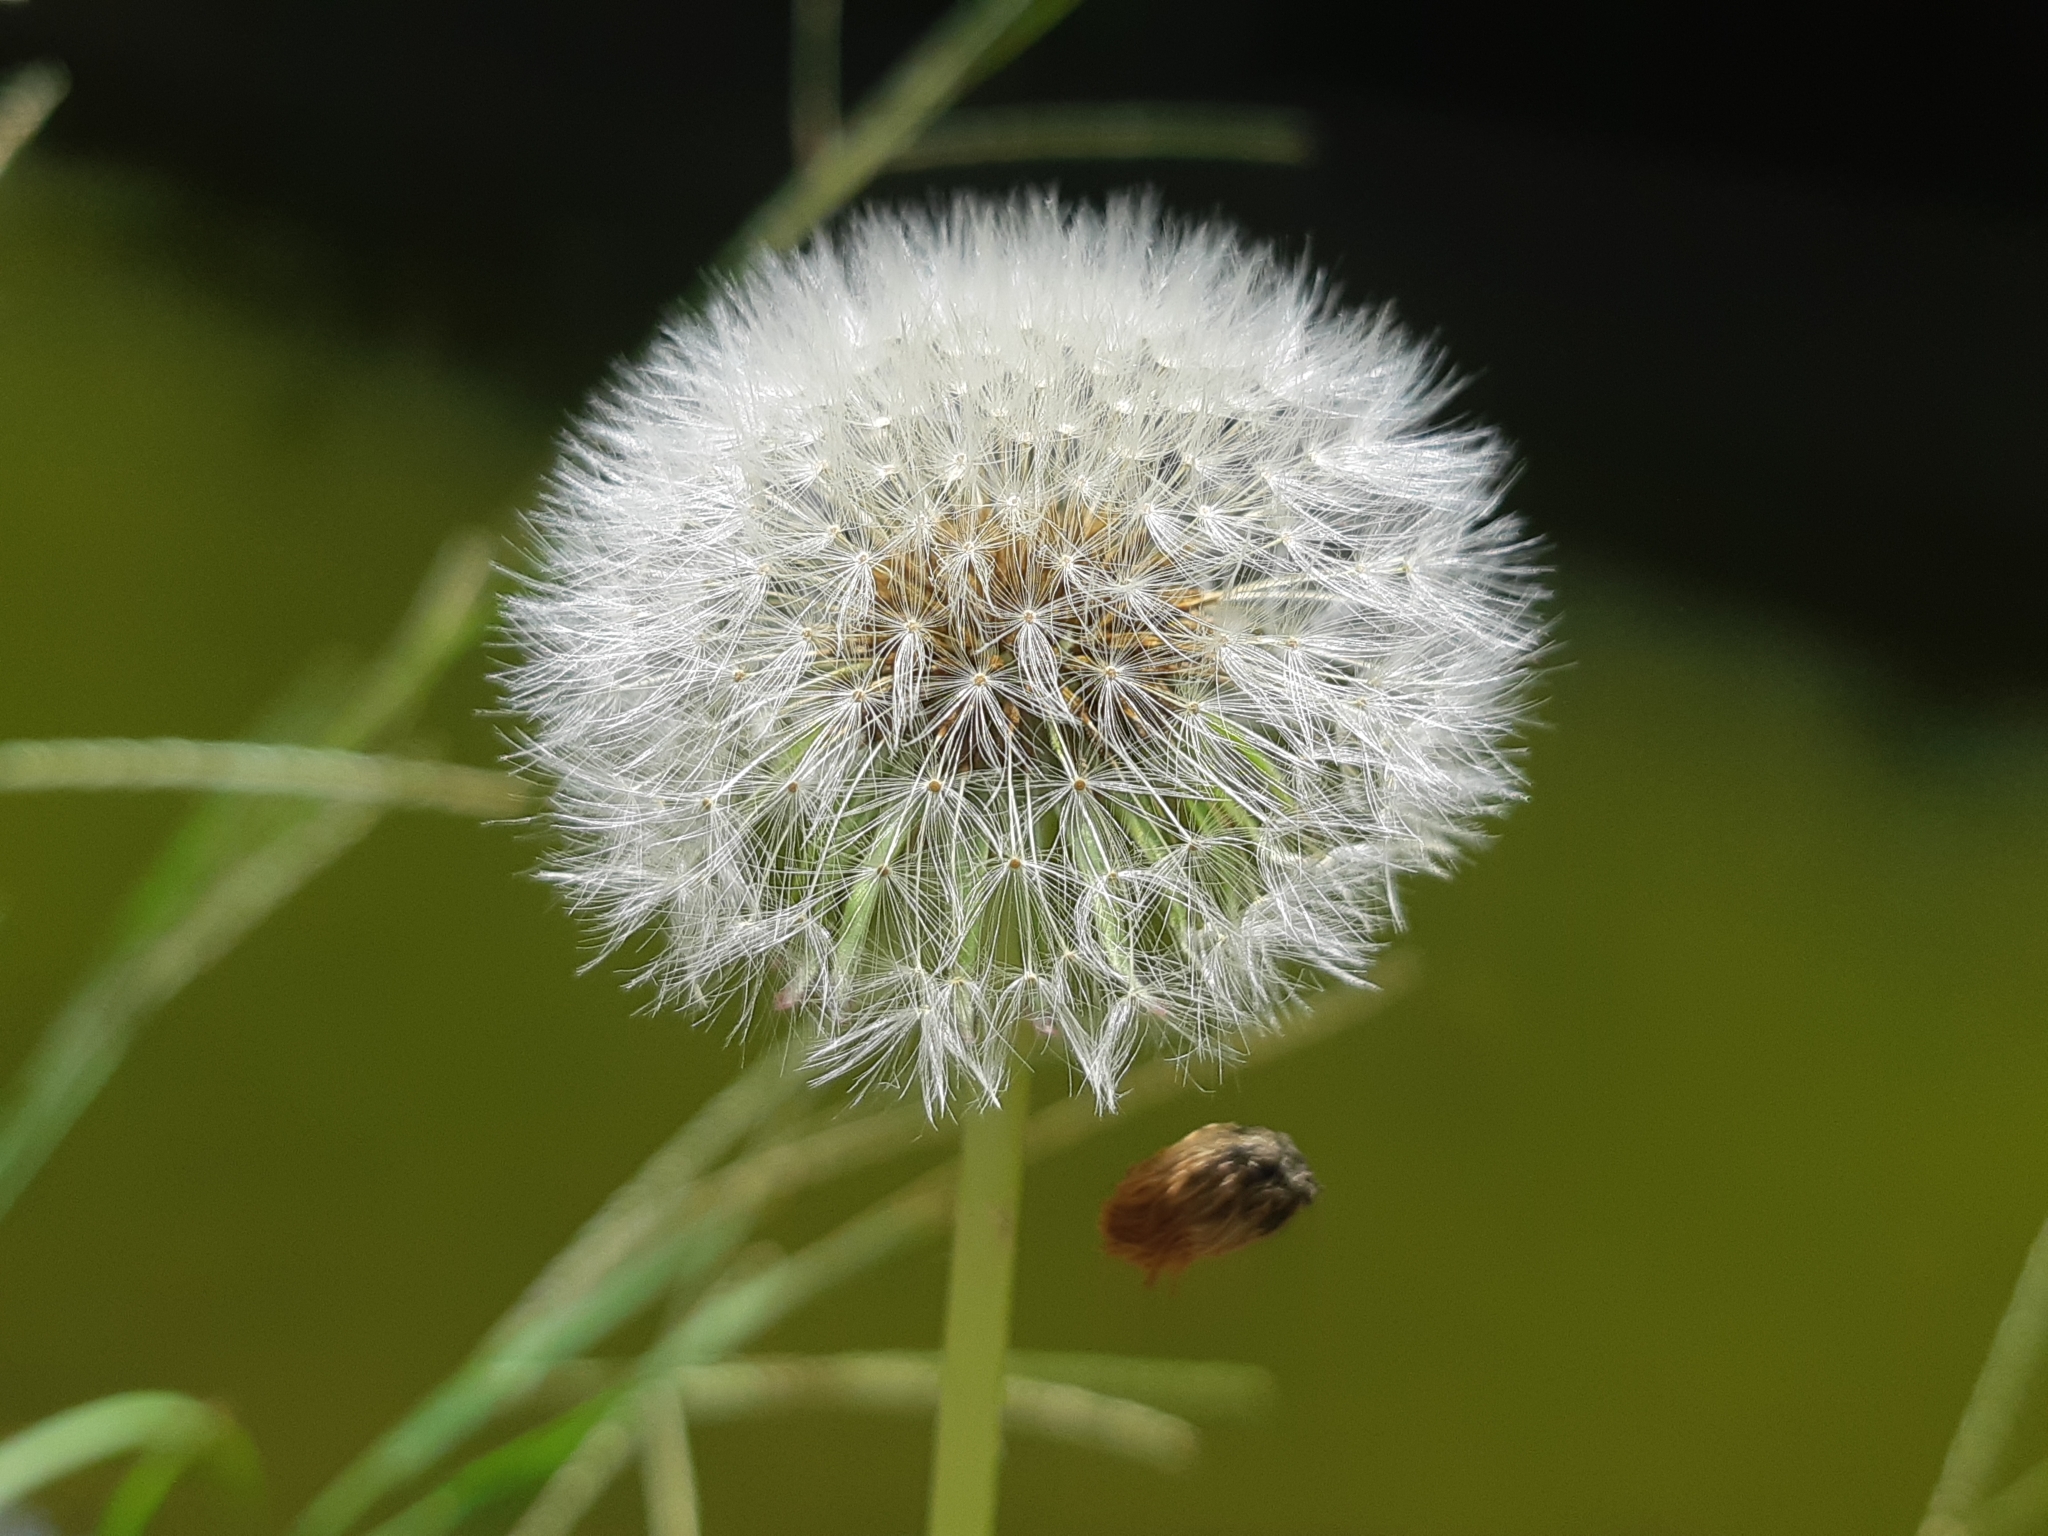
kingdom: Plantae
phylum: Tracheophyta
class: Magnoliopsida
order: Asterales
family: Asteraceae
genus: Taraxacum
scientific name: Taraxacum officinale
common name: Common dandelion
